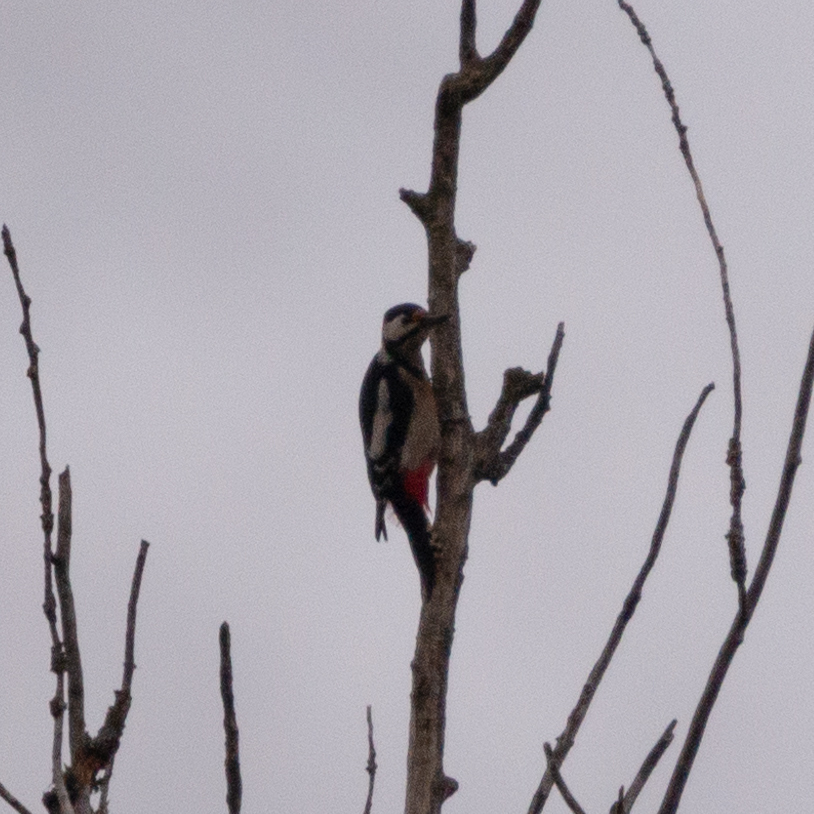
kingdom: Animalia
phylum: Chordata
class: Aves
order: Piciformes
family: Picidae
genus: Dendrocopos
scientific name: Dendrocopos major
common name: Great spotted woodpecker
